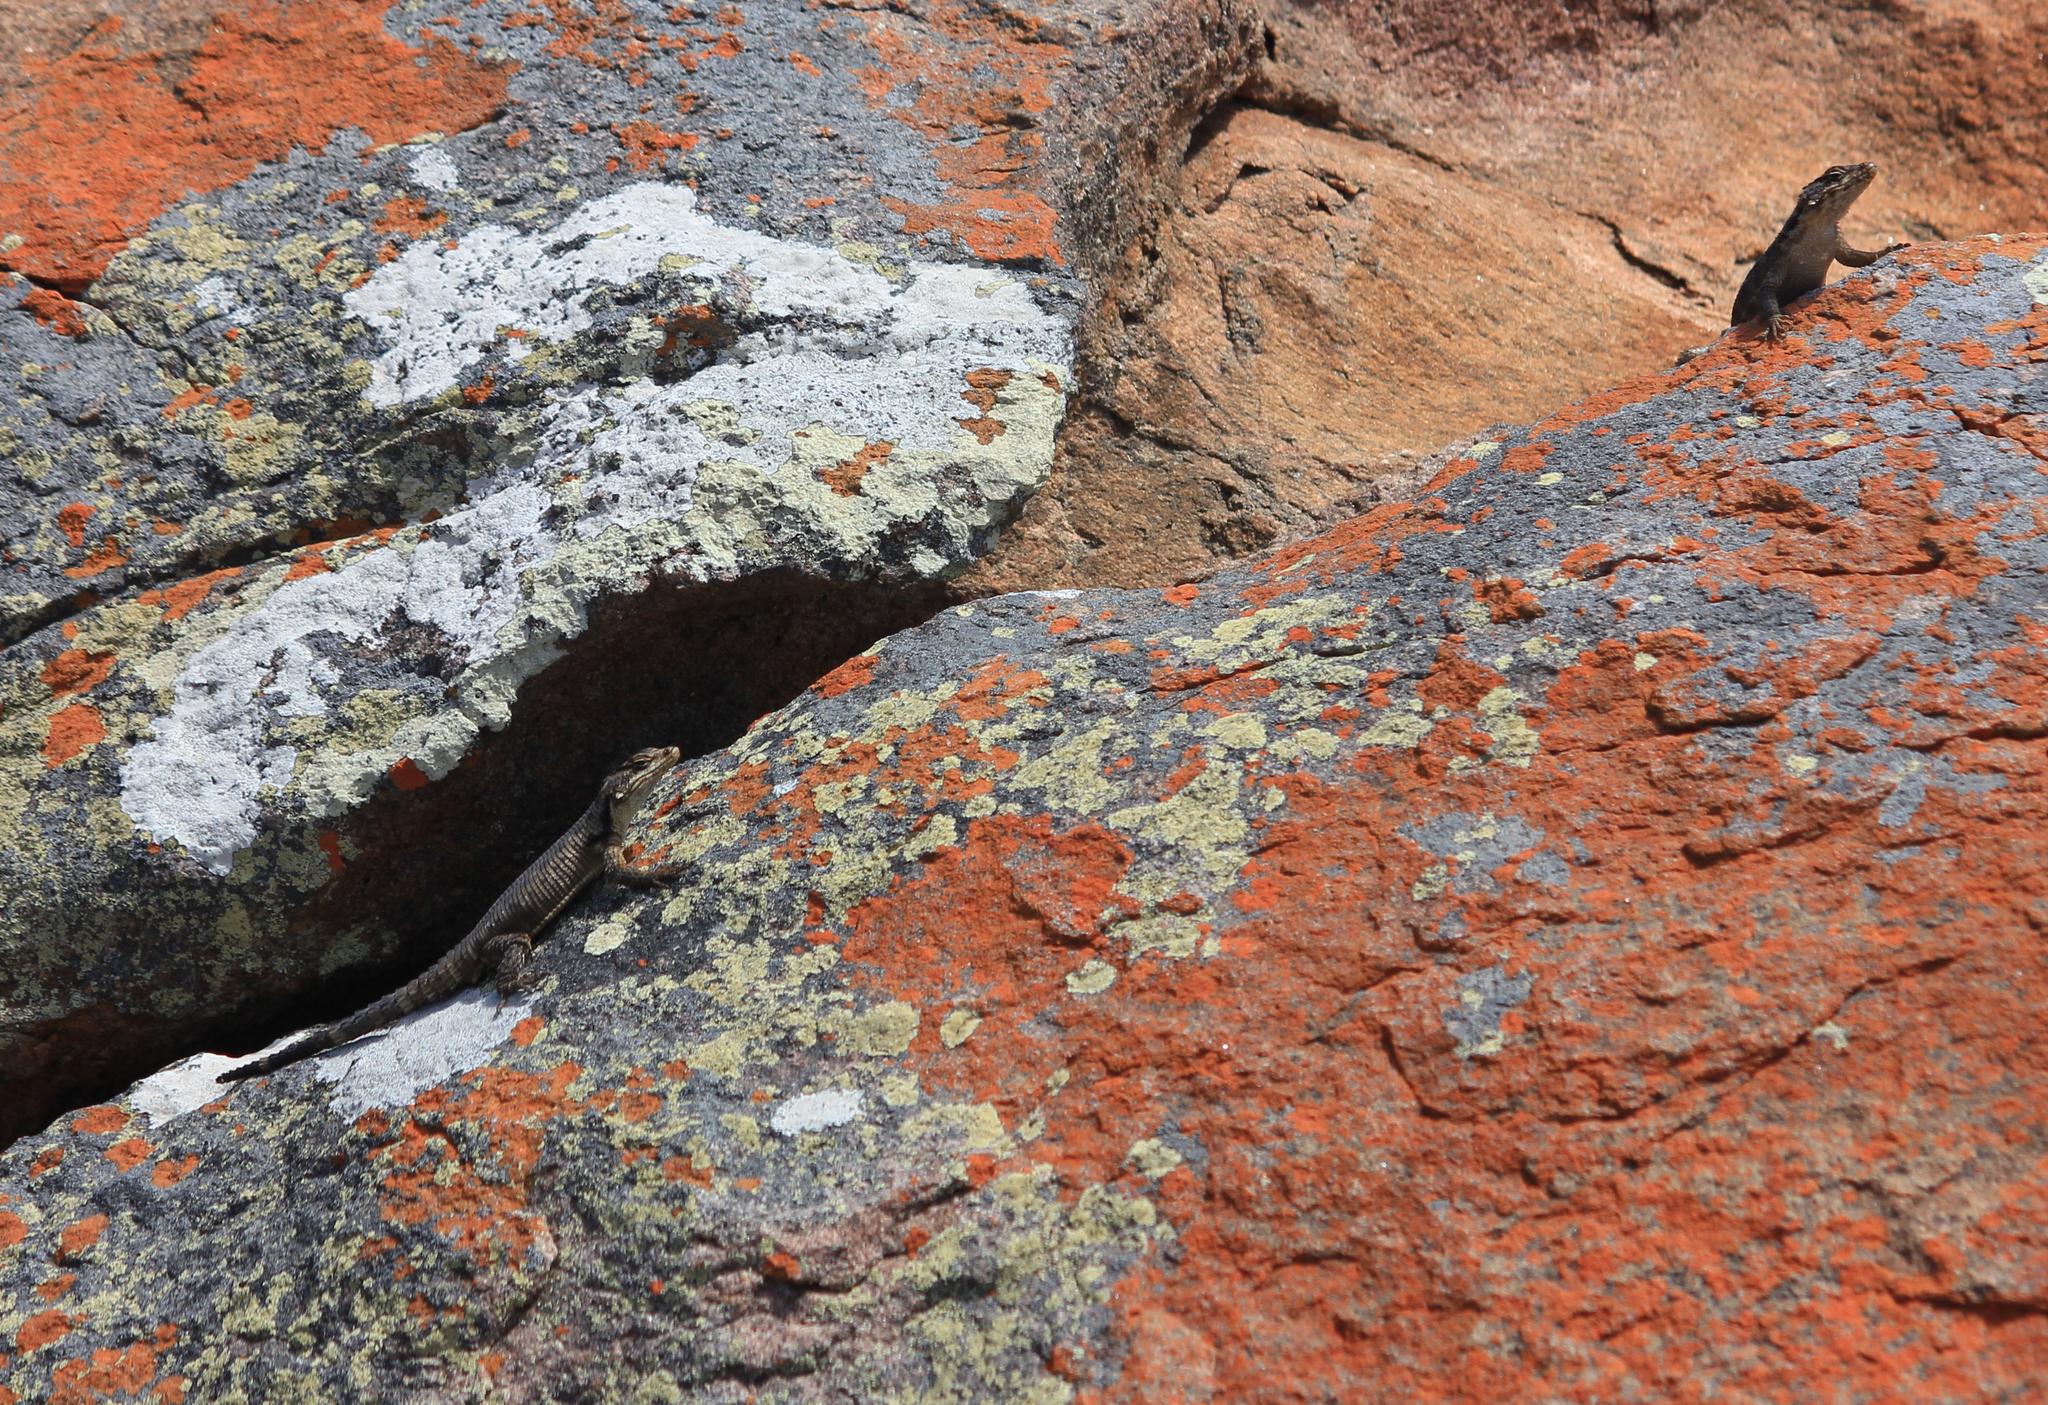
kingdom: Animalia
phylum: Chordata
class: Squamata
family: Cordylidae
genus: Karusasaurus
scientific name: Karusasaurus polyzonus
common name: Karoo girdled lizard
